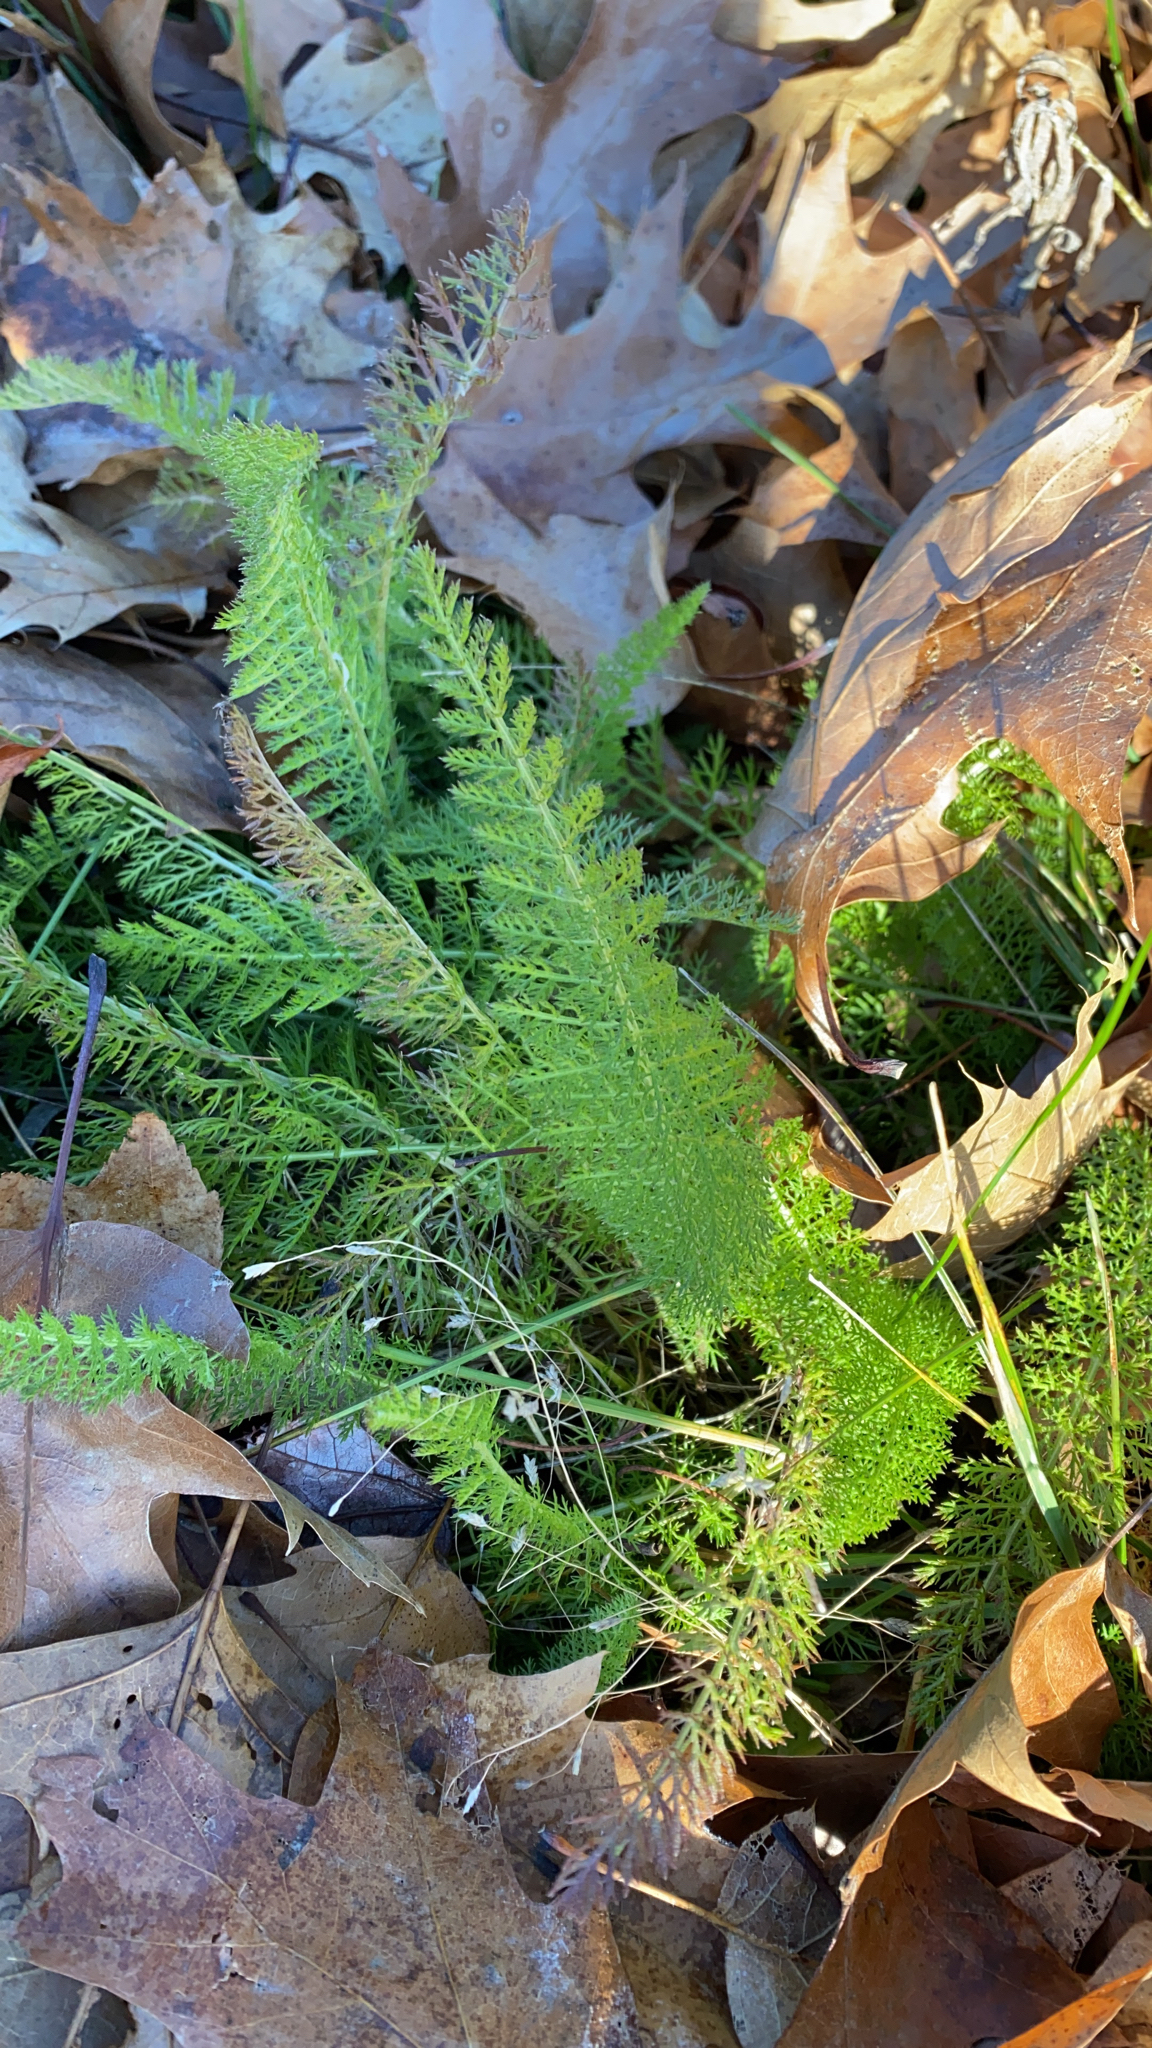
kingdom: Plantae
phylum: Tracheophyta
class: Magnoliopsida
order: Asterales
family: Asteraceae
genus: Achillea
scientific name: Achillea millefolium
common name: Yarrow
